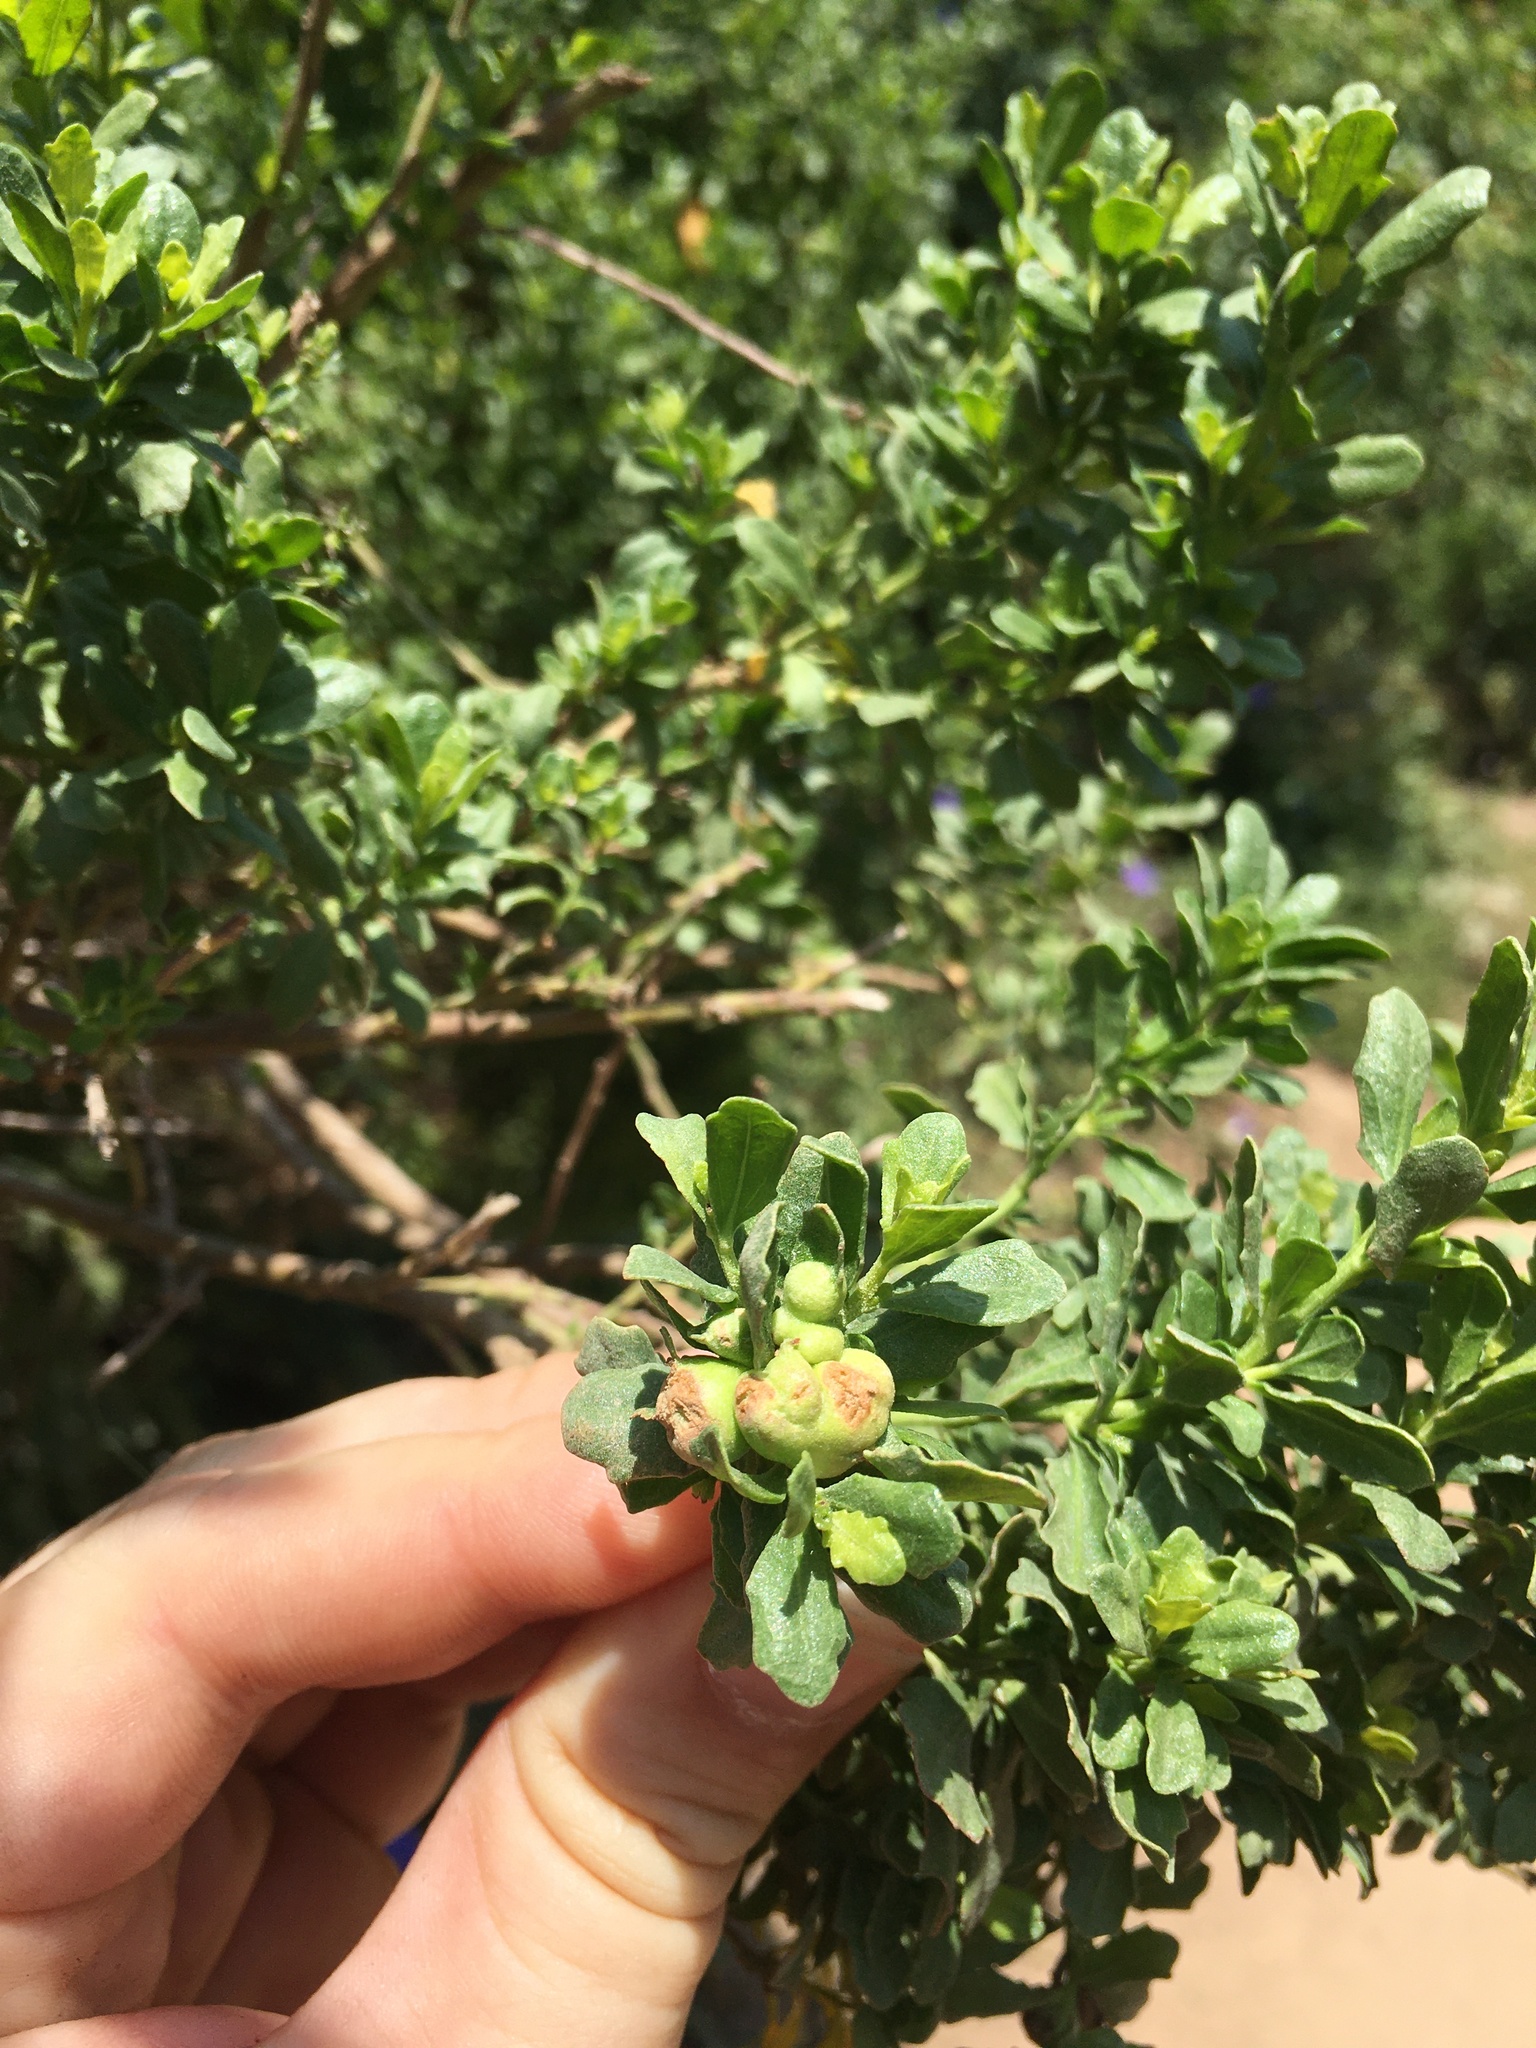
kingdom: Plantae
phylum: Tracheophyta
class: Magnoliopsida
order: Asterales
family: Asteraceae
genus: Baccharis
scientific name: Baccharis pilularis
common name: Coyotebrush
